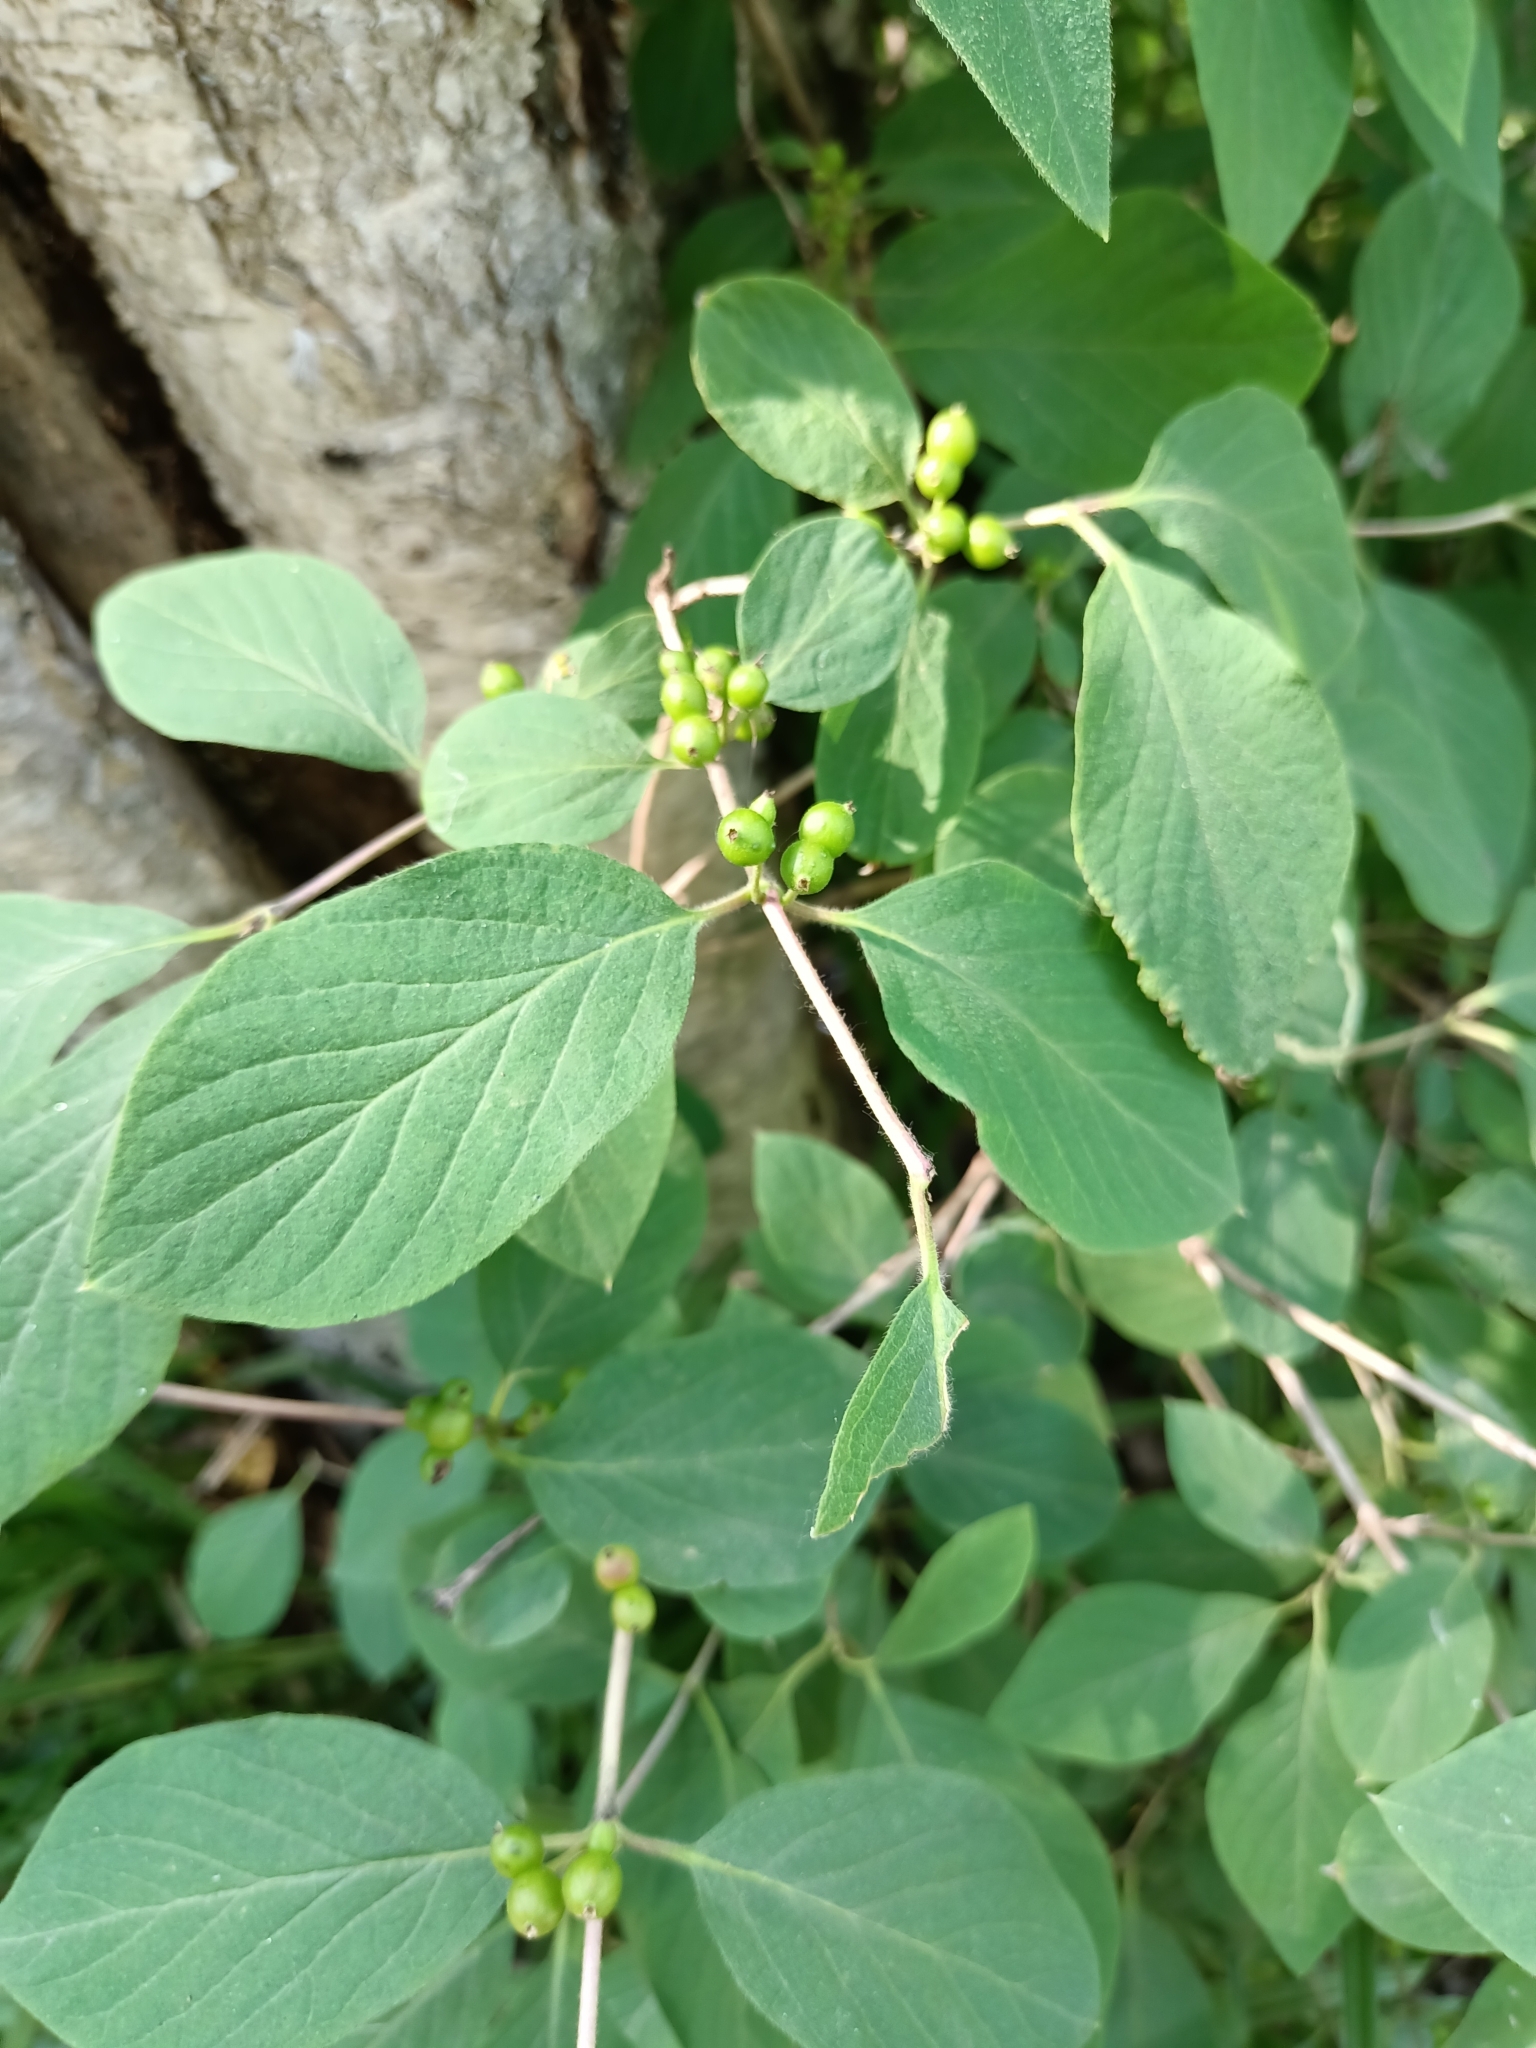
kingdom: Plantae
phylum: Tracheophyta
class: Magnoliopsida
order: Dipsacales
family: Caprifoliaceae
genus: Lonicera
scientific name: Lonicera xylosteum
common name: Fly honeysuckle
